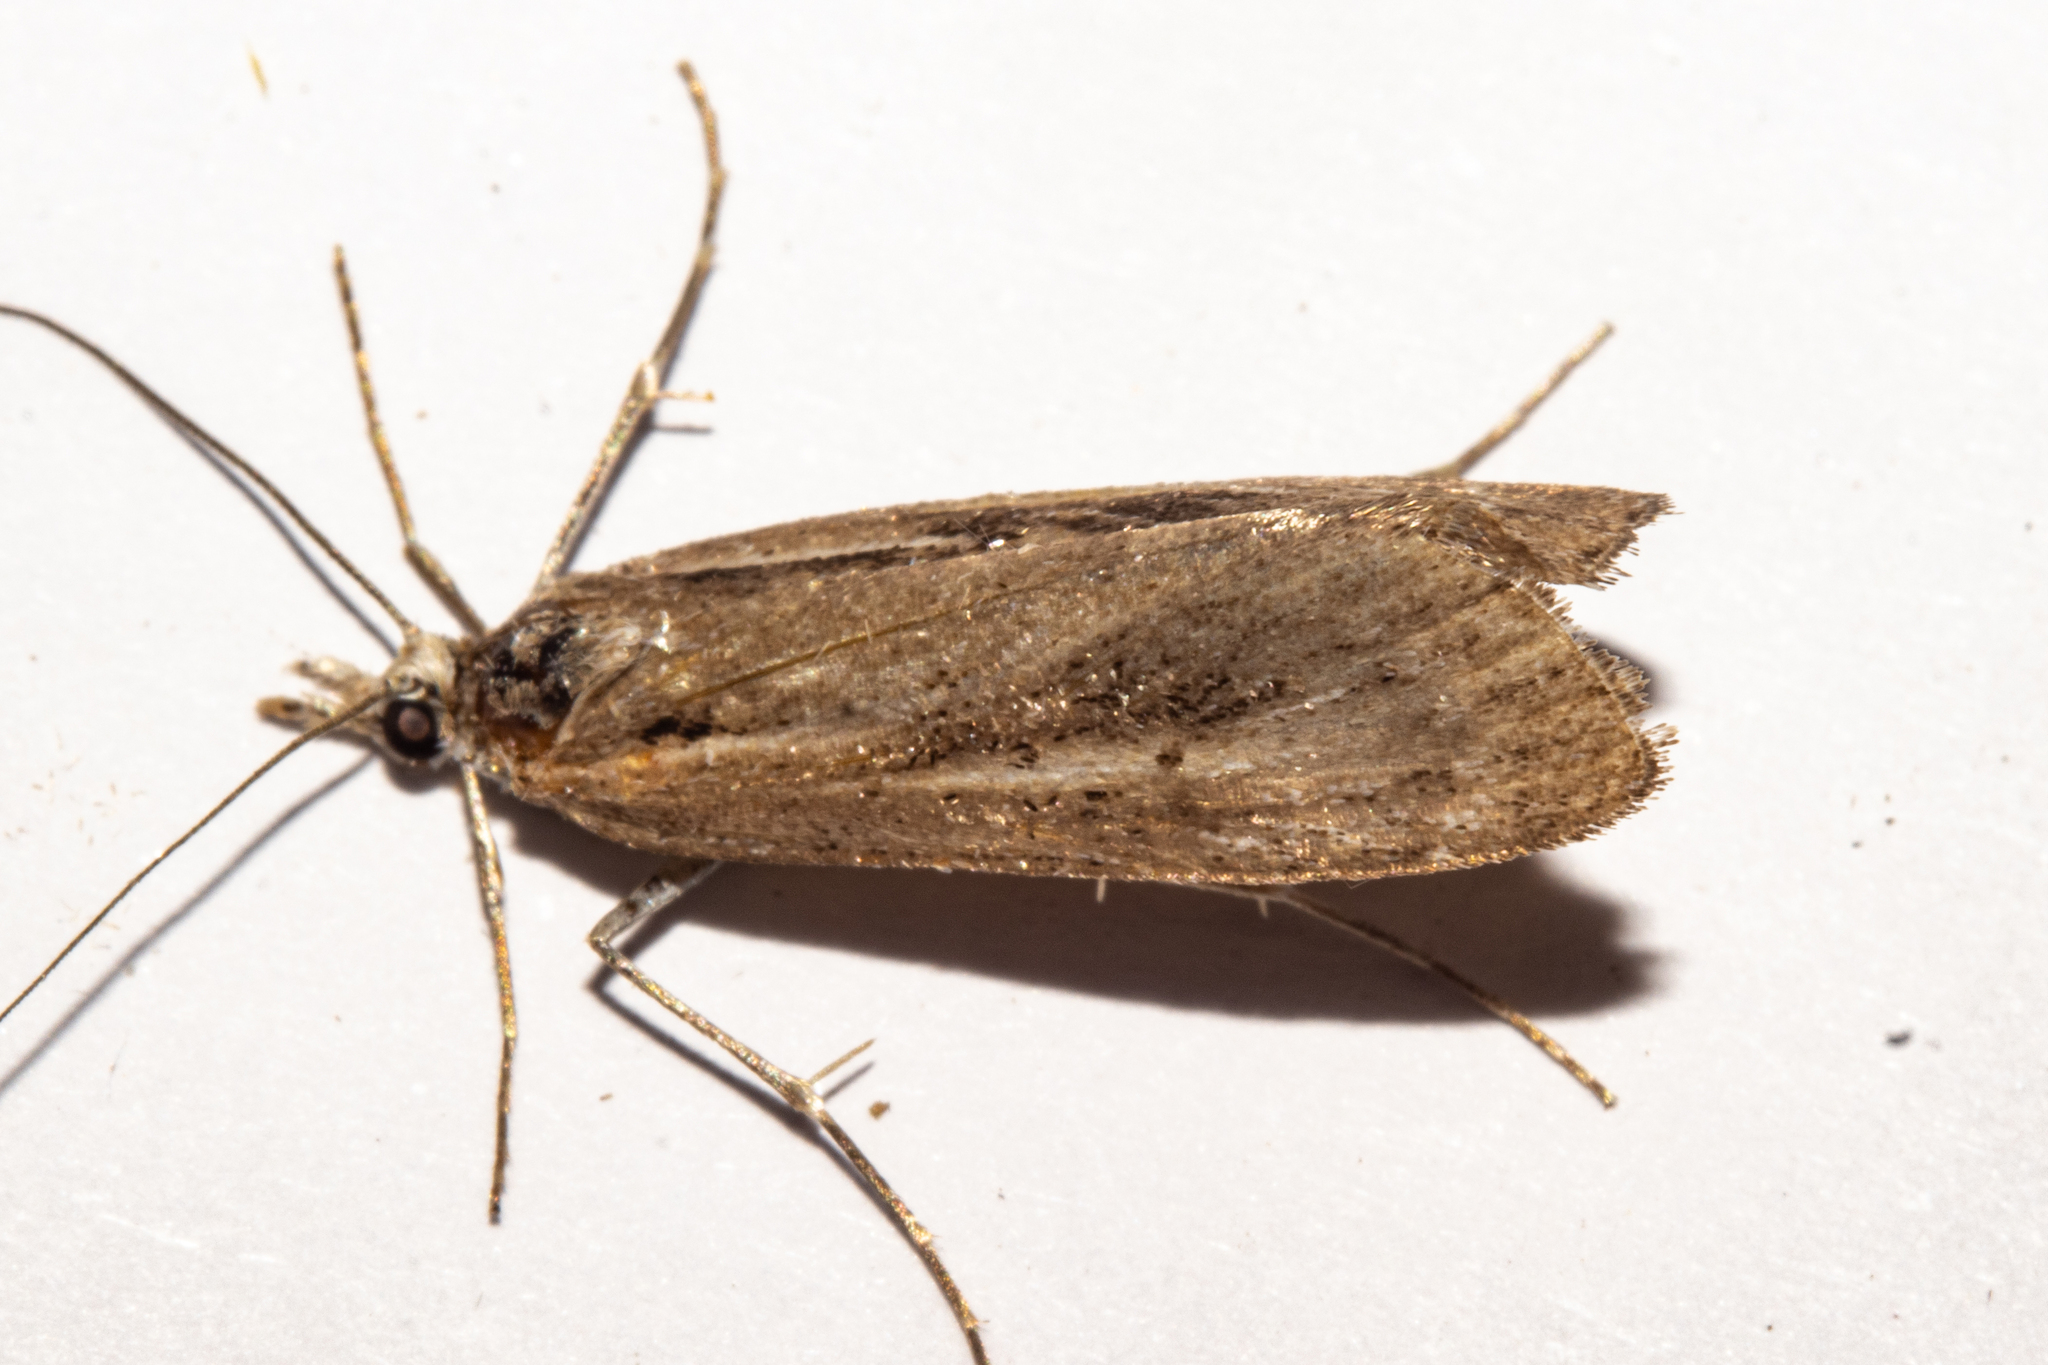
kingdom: Animalia
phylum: Arthropoda
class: Insecta
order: Lepidoptera
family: Crambidae
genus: Tawhitia
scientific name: Tawhitia pentadactylus
